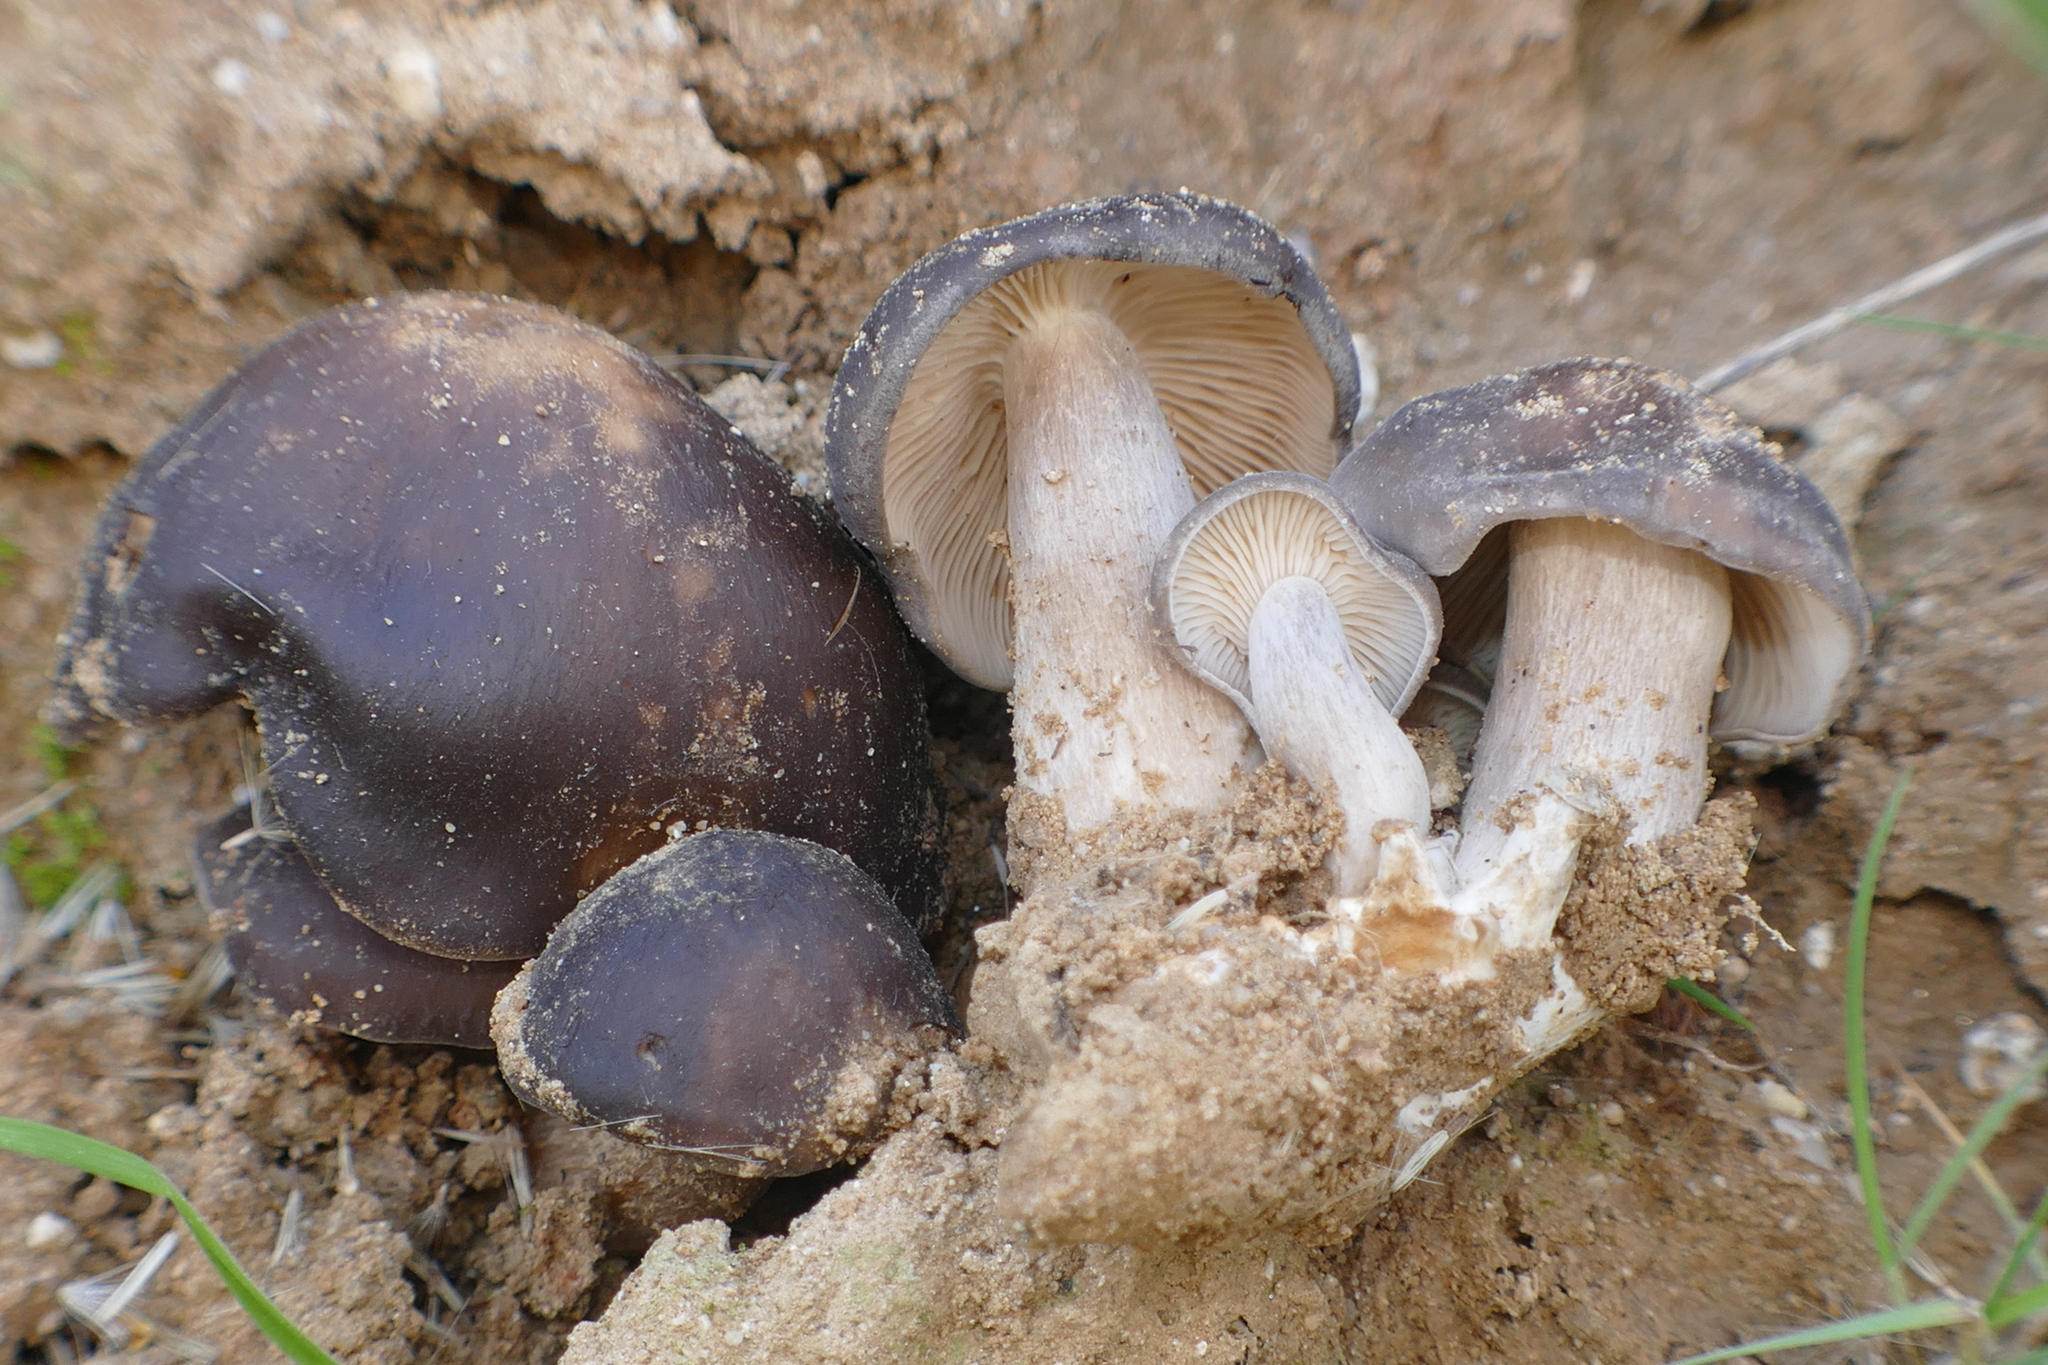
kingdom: Fungi
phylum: Basidiomycota
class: Agaricomycetes
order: Agaricales
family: Lyophyllaceae
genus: Lyophyllum
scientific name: Lyophyllum decastes
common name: Clustered domecap
